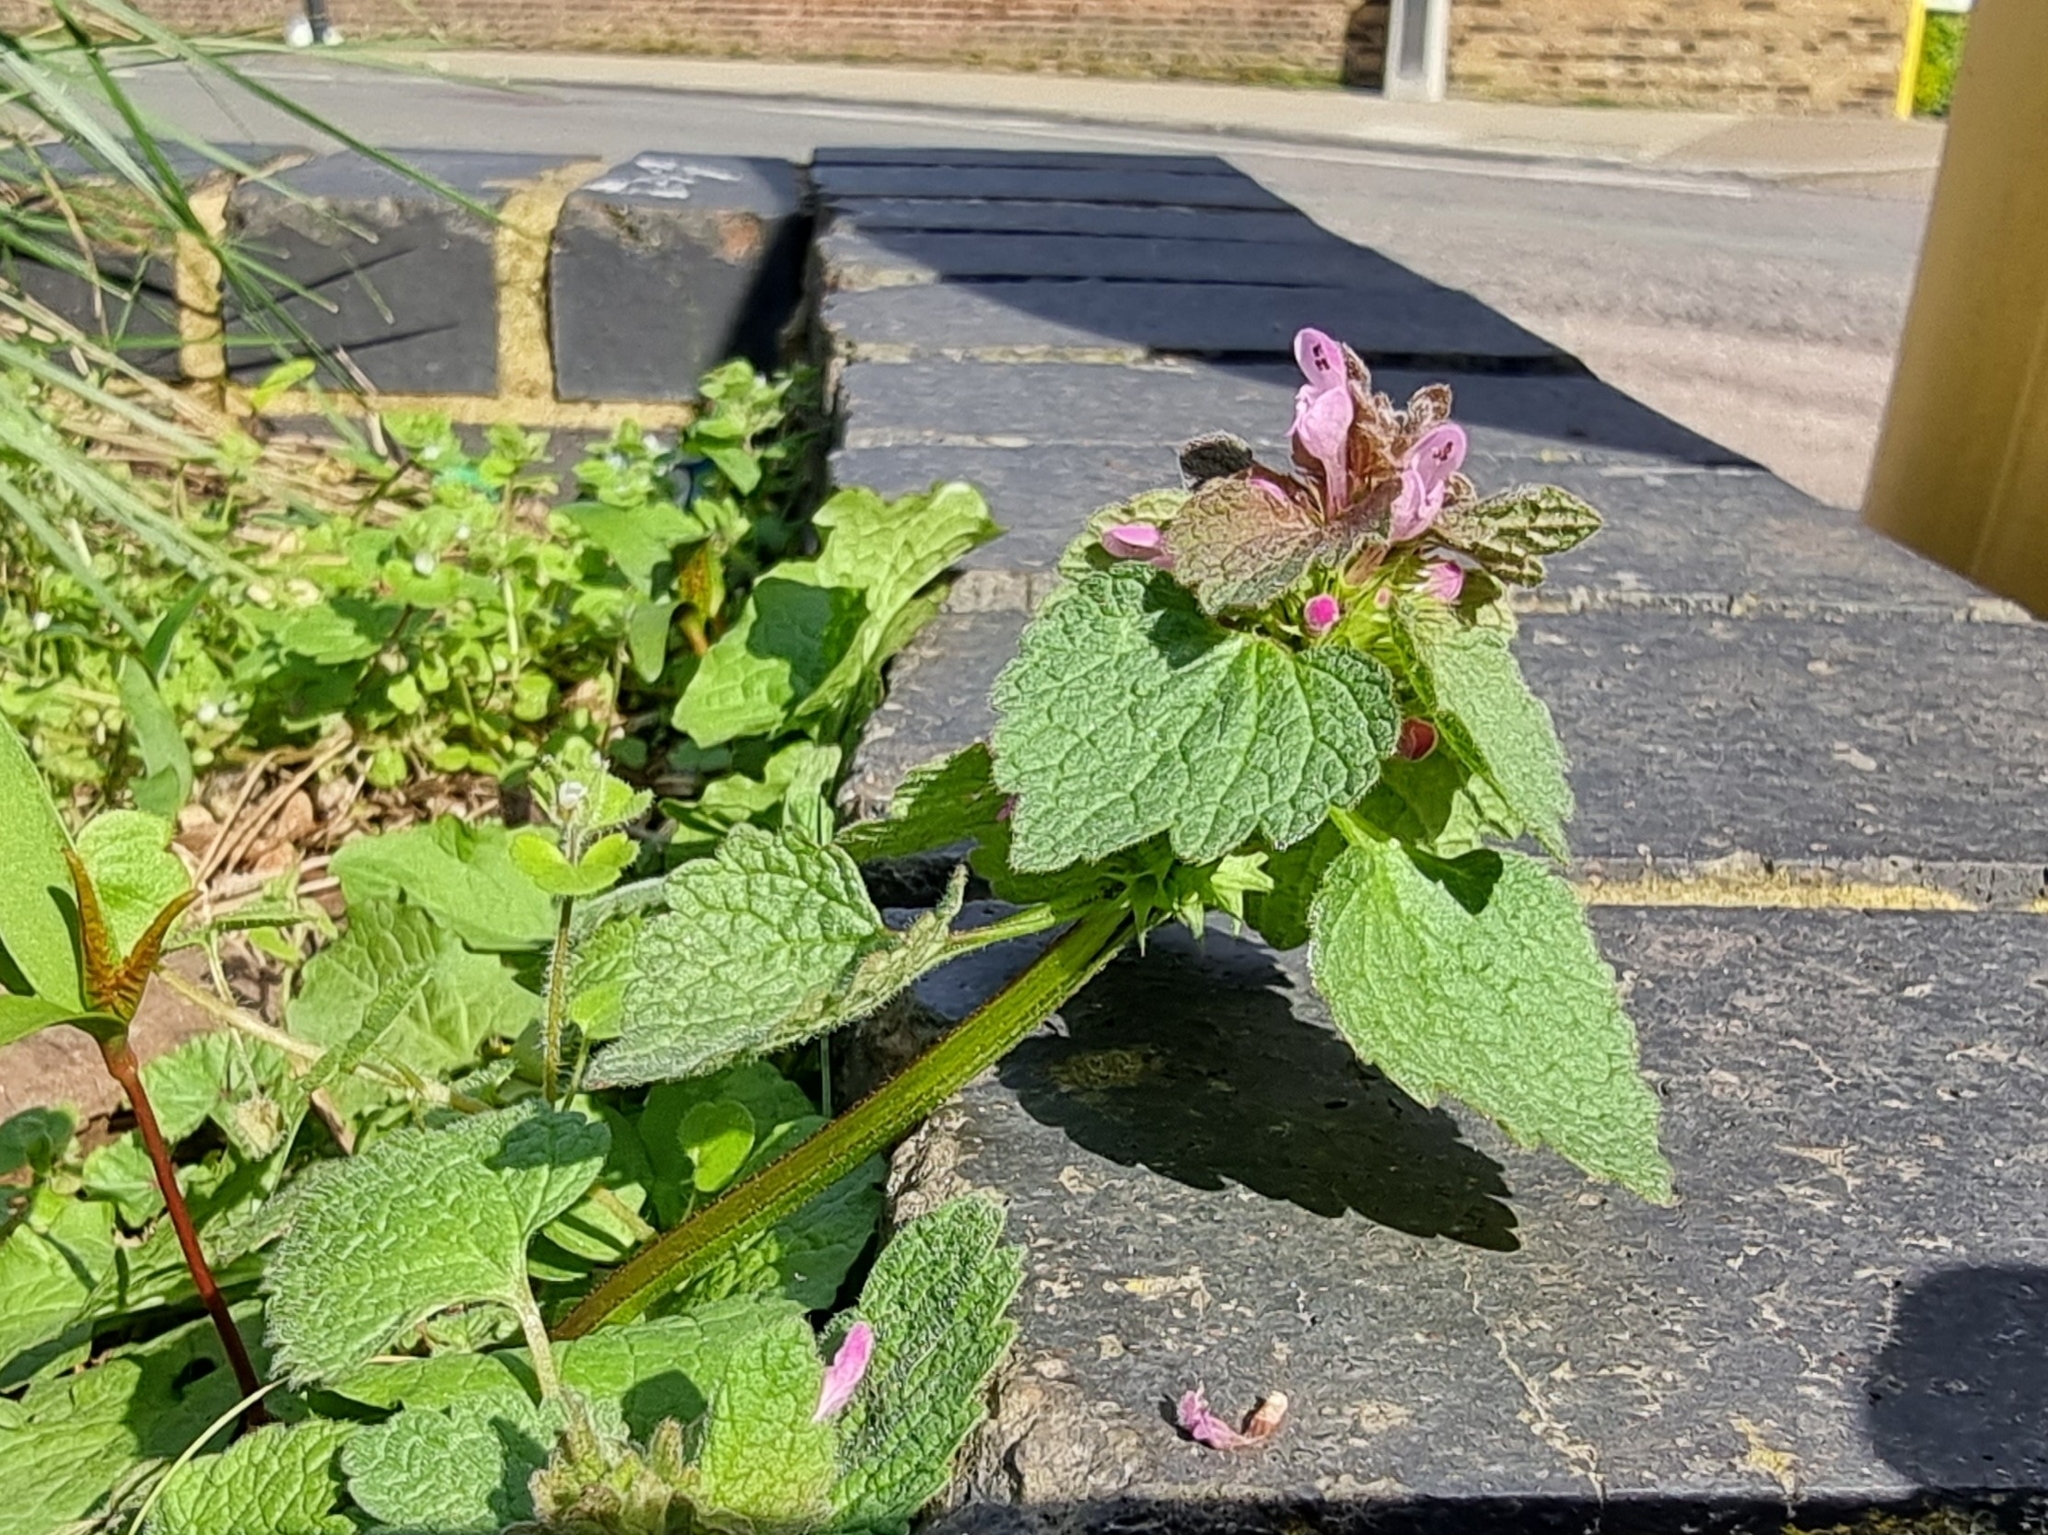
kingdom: Plantae
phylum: Tracheophyta
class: Magnoliopsida
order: Lamiales
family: Lamiaceae
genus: Lamium
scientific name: Lamium purpureum
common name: Red dead-nettle
